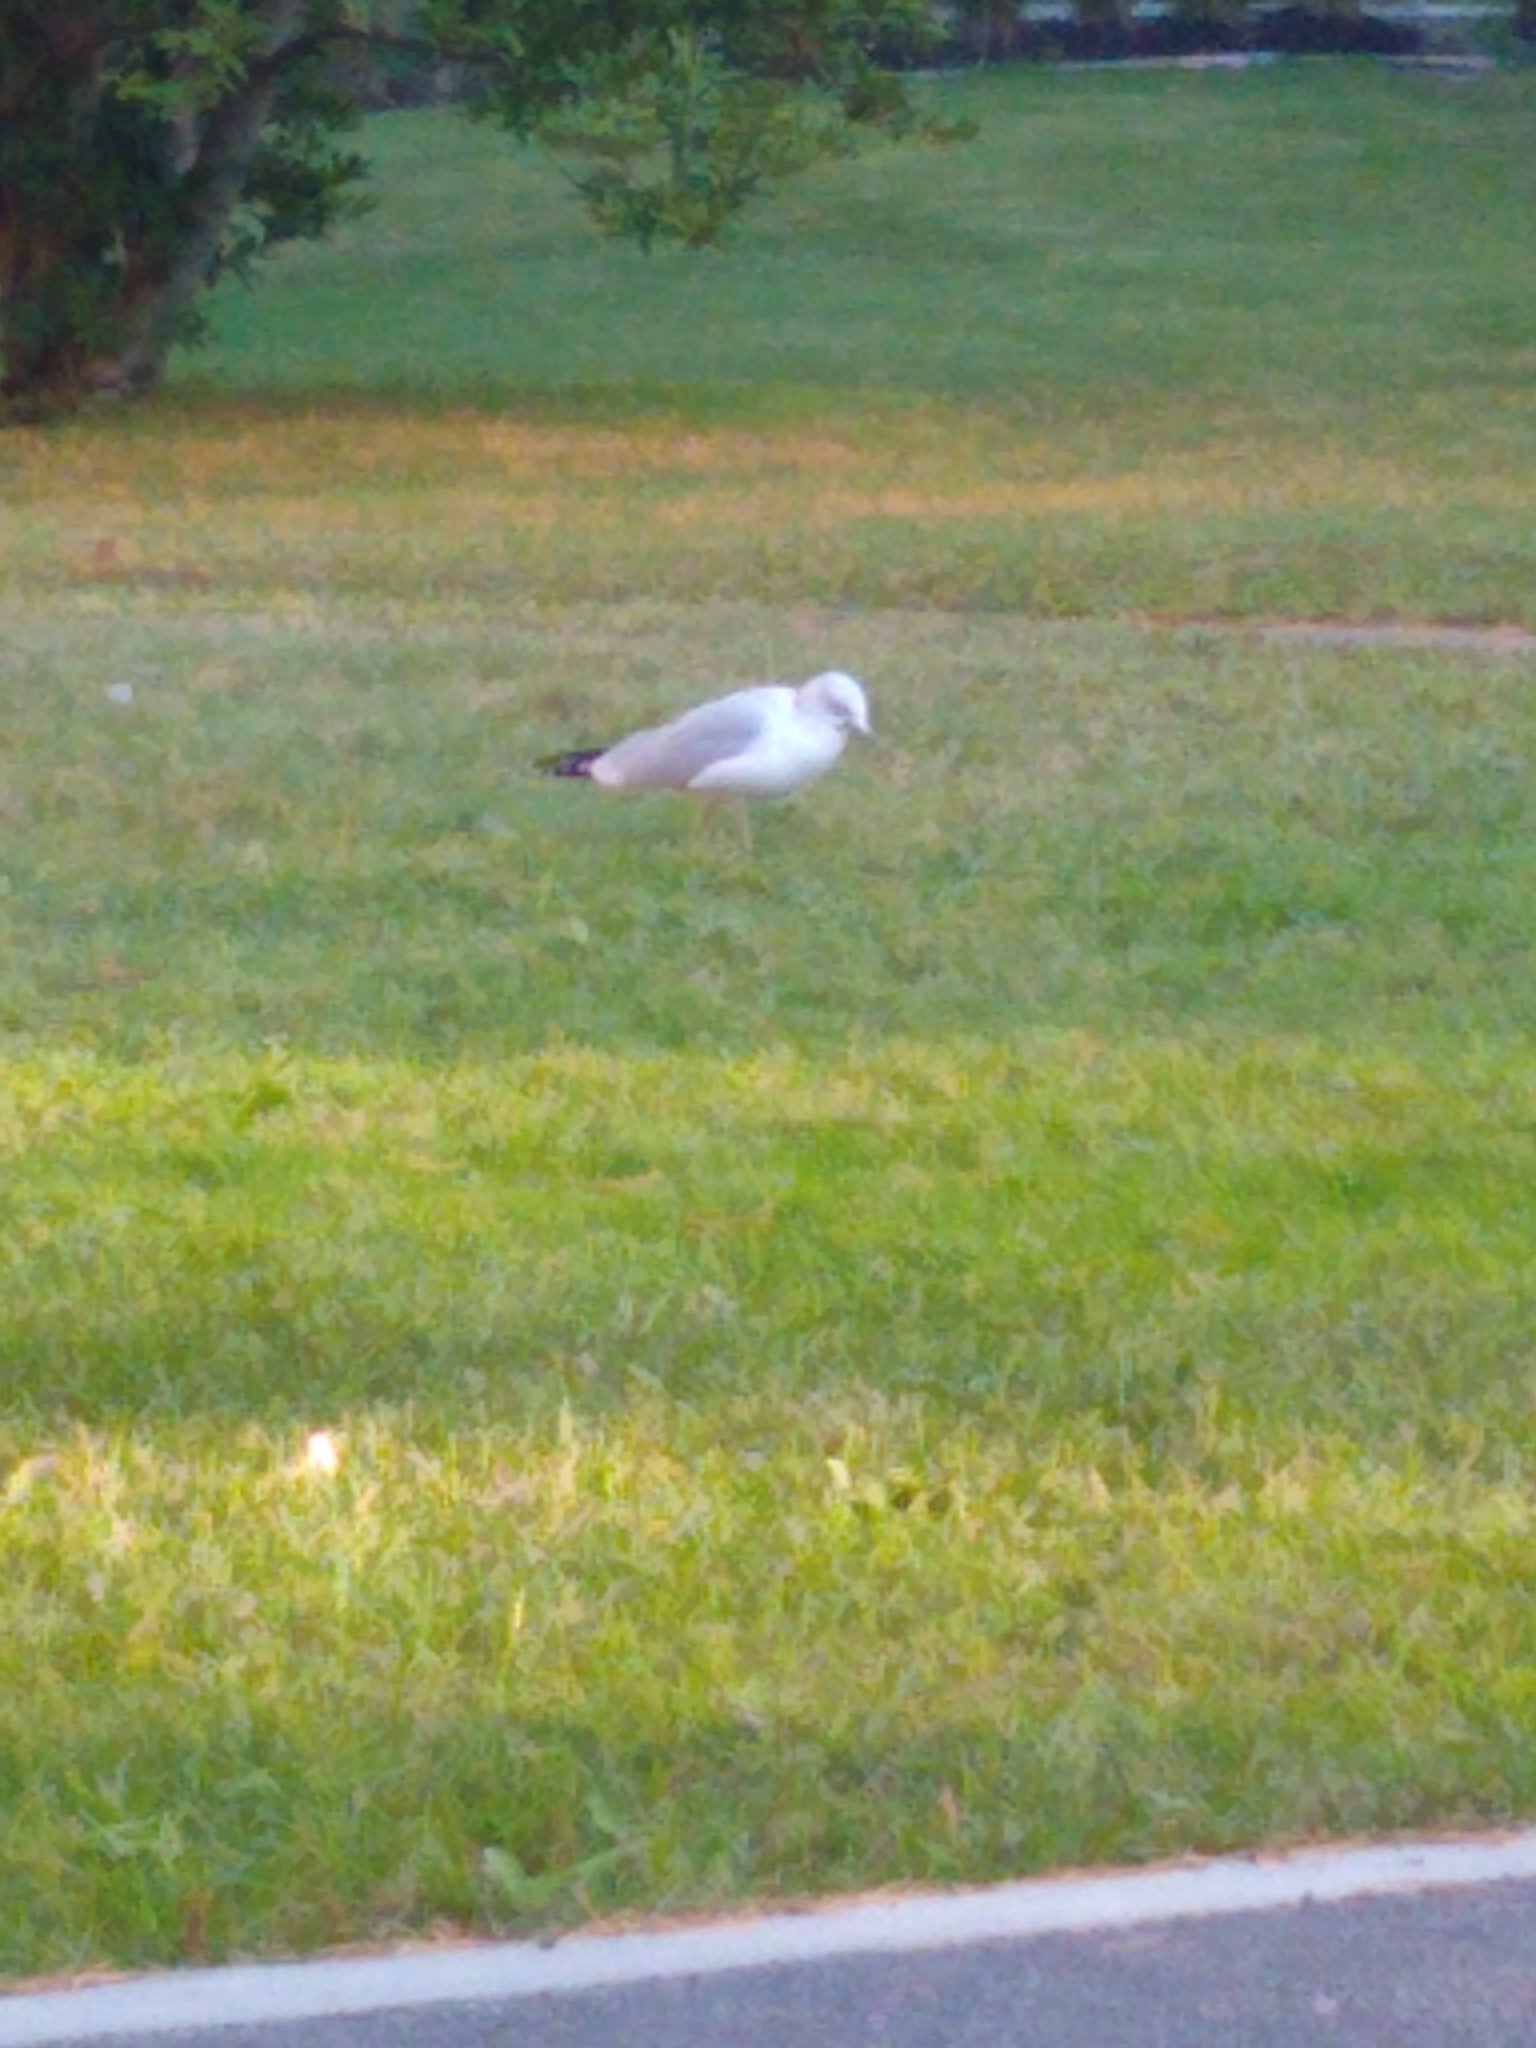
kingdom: Animalia
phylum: Chordata
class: Aves
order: Charadriiformes
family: Laridae
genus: Larus
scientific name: Larus delawarensis
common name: Ring-billed gull
